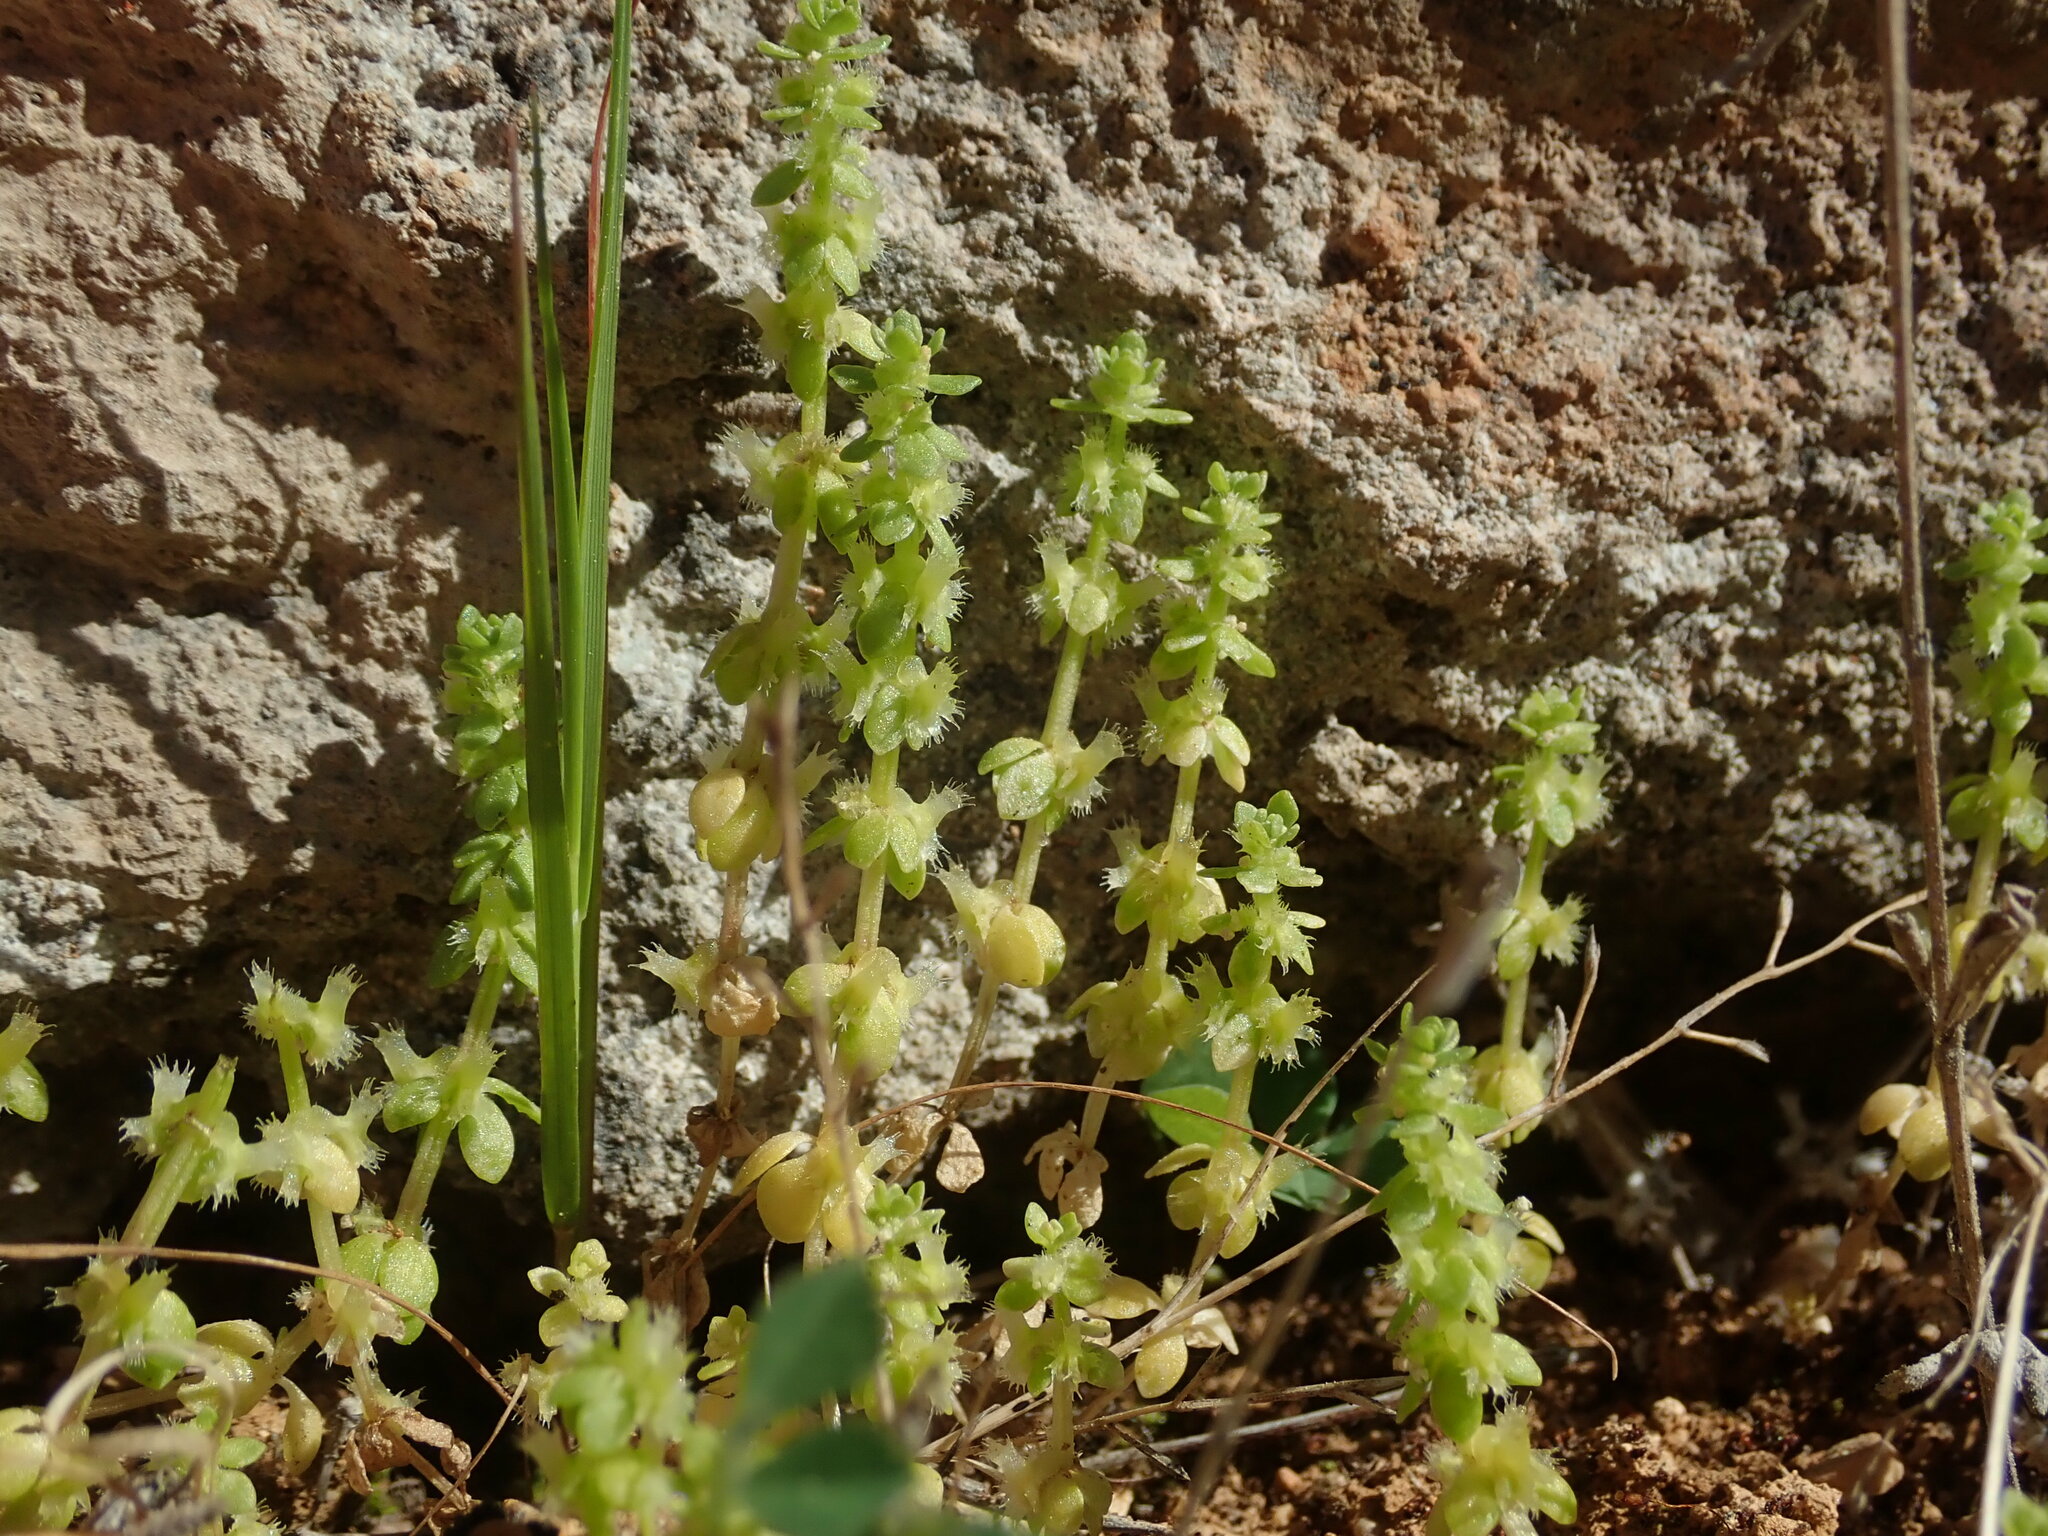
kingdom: Plantae
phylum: Tracheophyta
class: Magnoliopsida
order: Gentianales
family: Rubiaceae
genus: Valantia
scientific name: Valantia muralis
